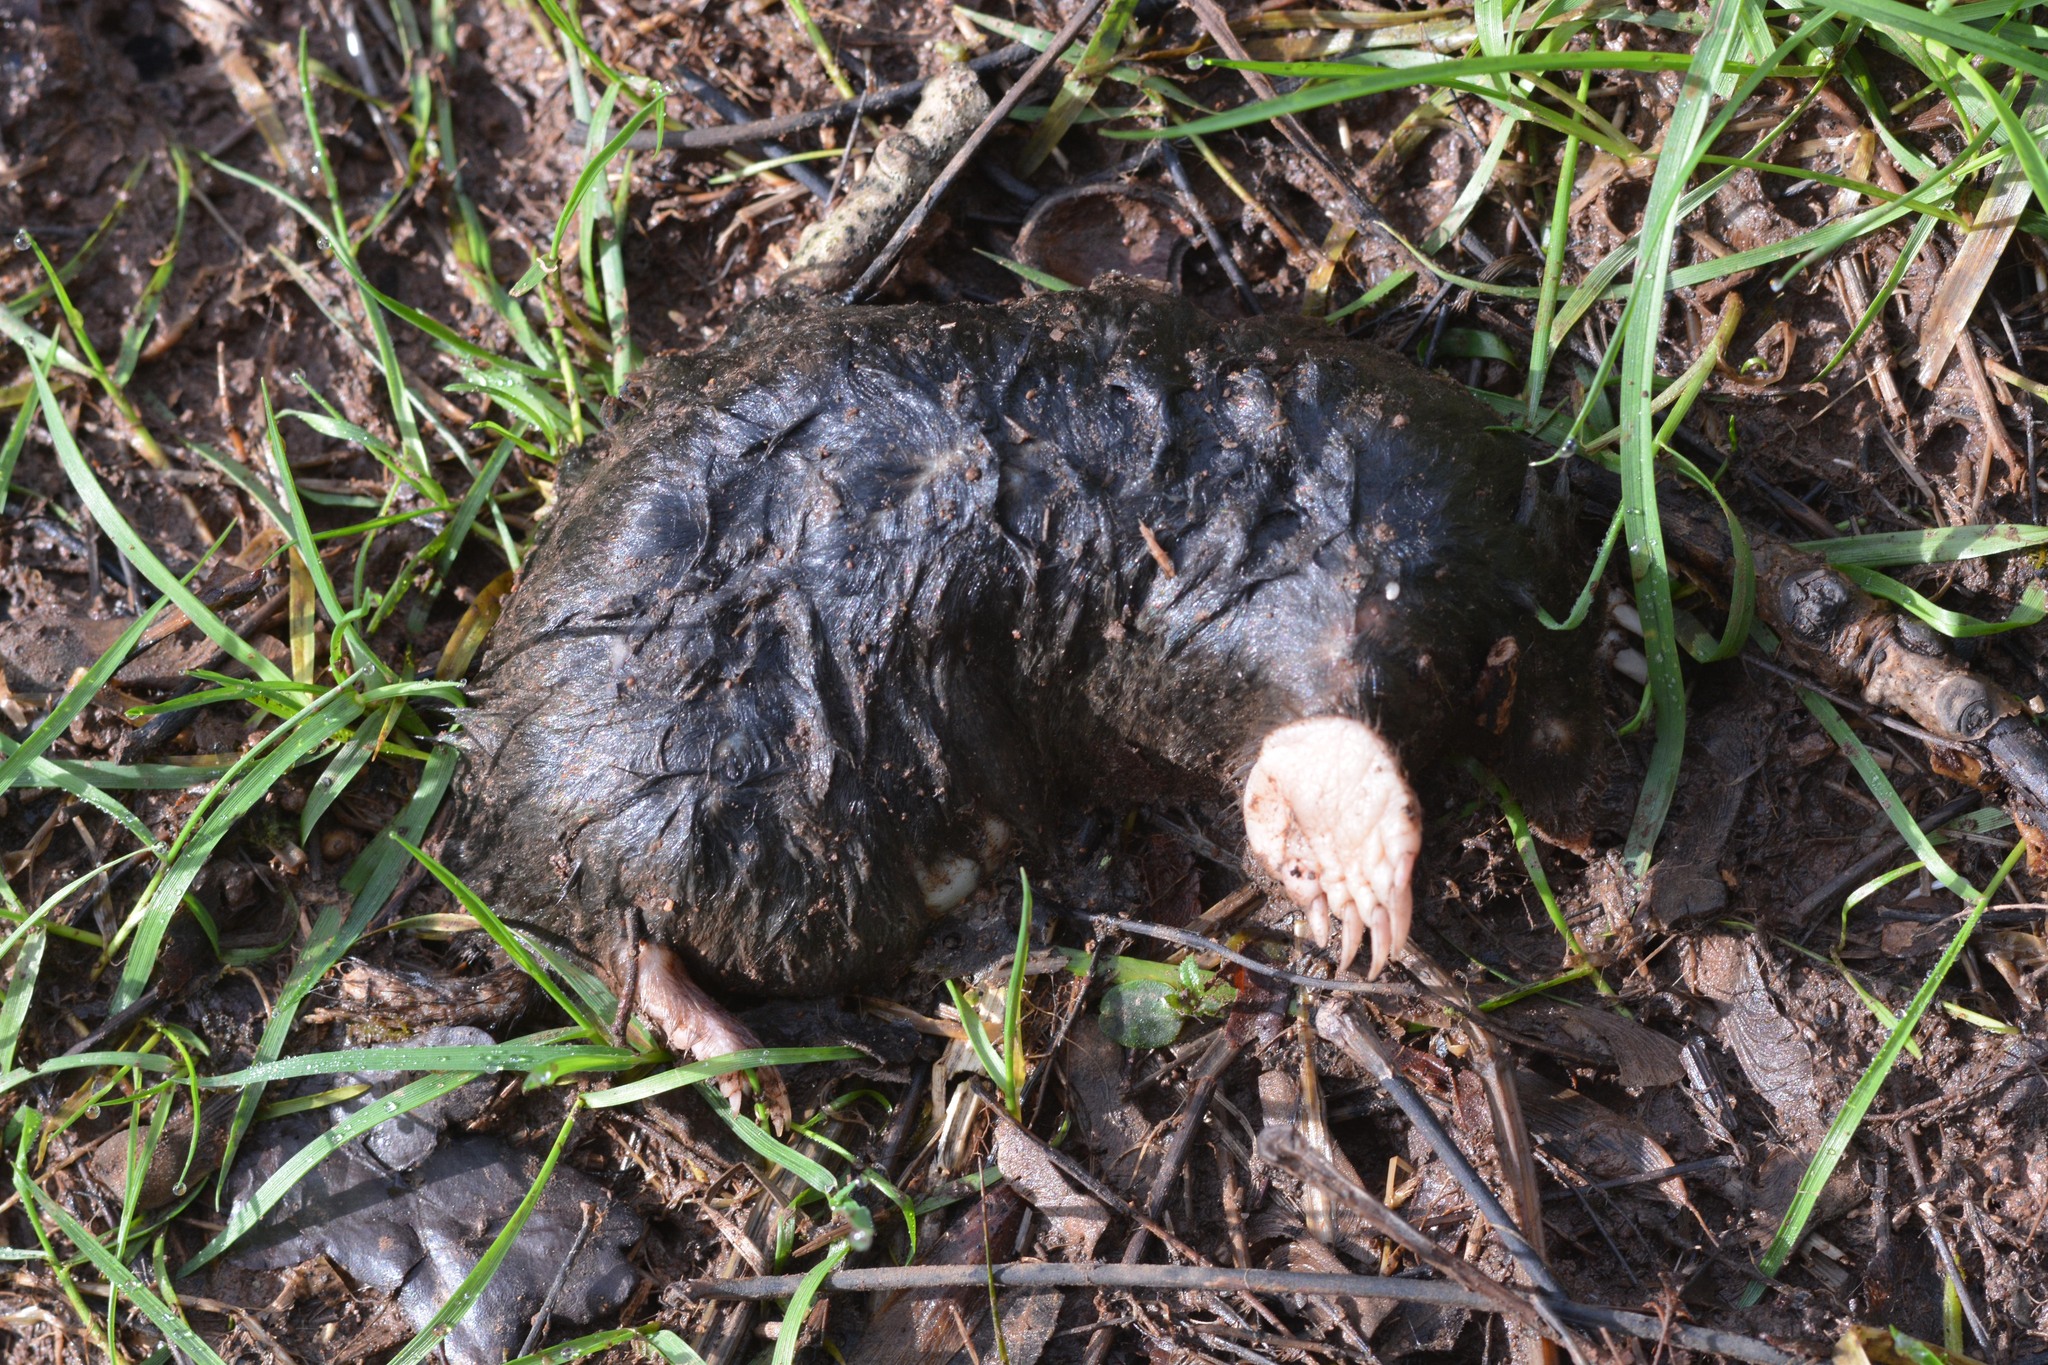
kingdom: Animalia
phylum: Chordata
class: Mammalia
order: Soricomorpha
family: Talpidae
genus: Talpa
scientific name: Talpa europaea
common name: European mole
